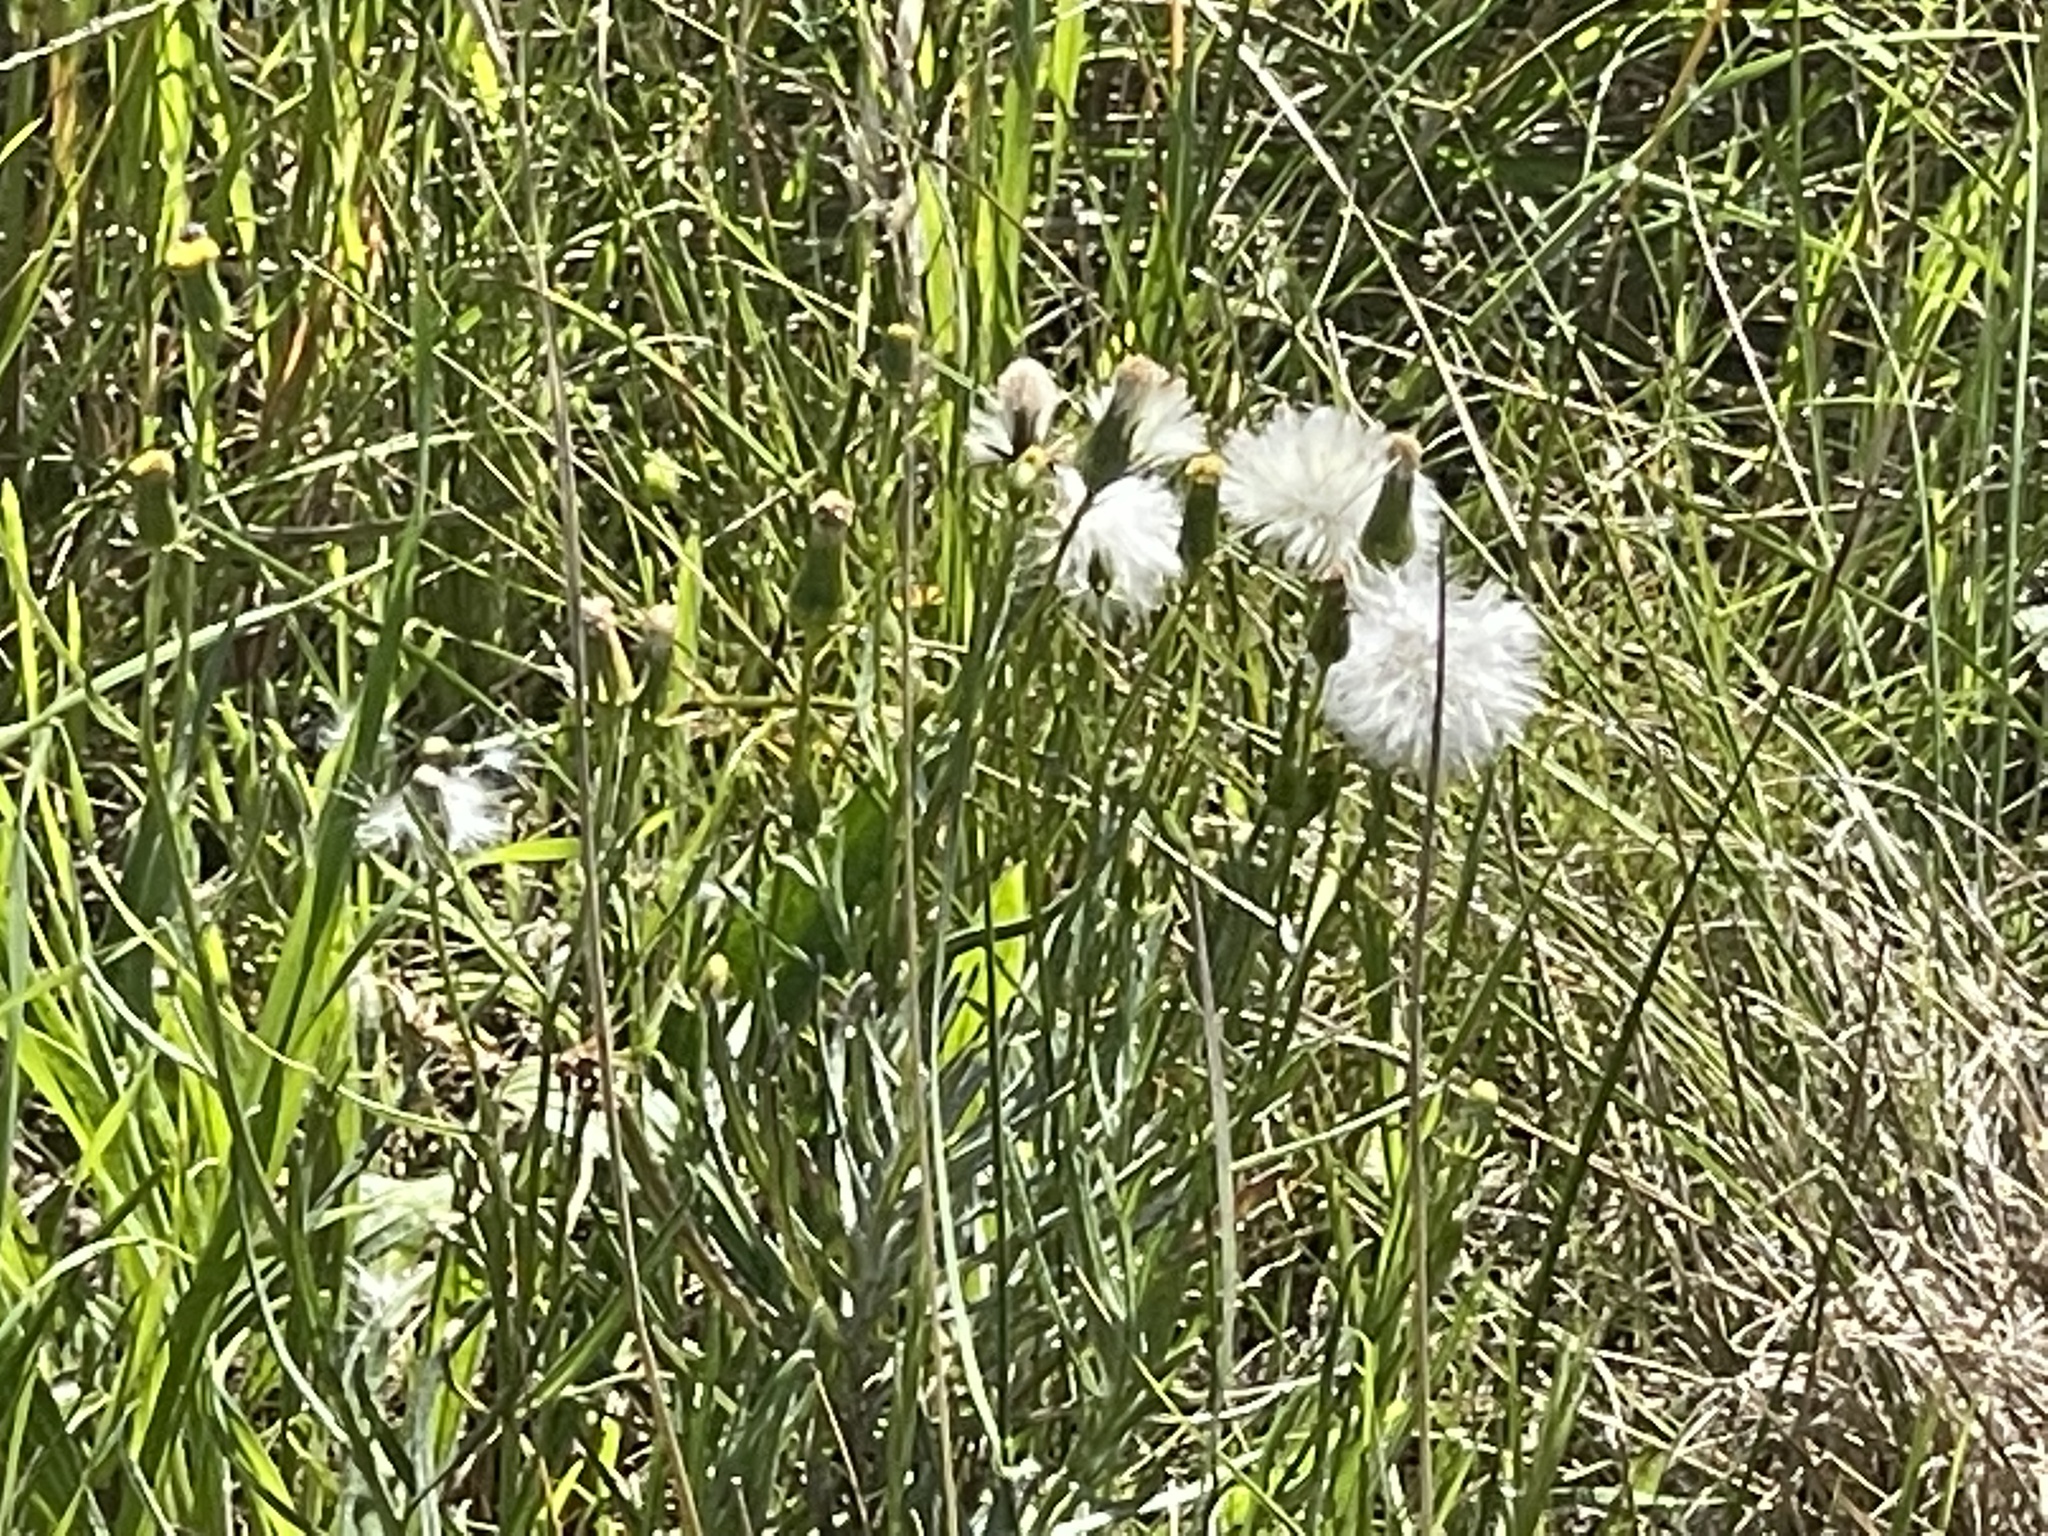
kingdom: Plantae
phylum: Tracheophyta
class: Magnoliopsida
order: Asterales
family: Asteraceae
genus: Senecio
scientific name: Senecio macrocarpus
